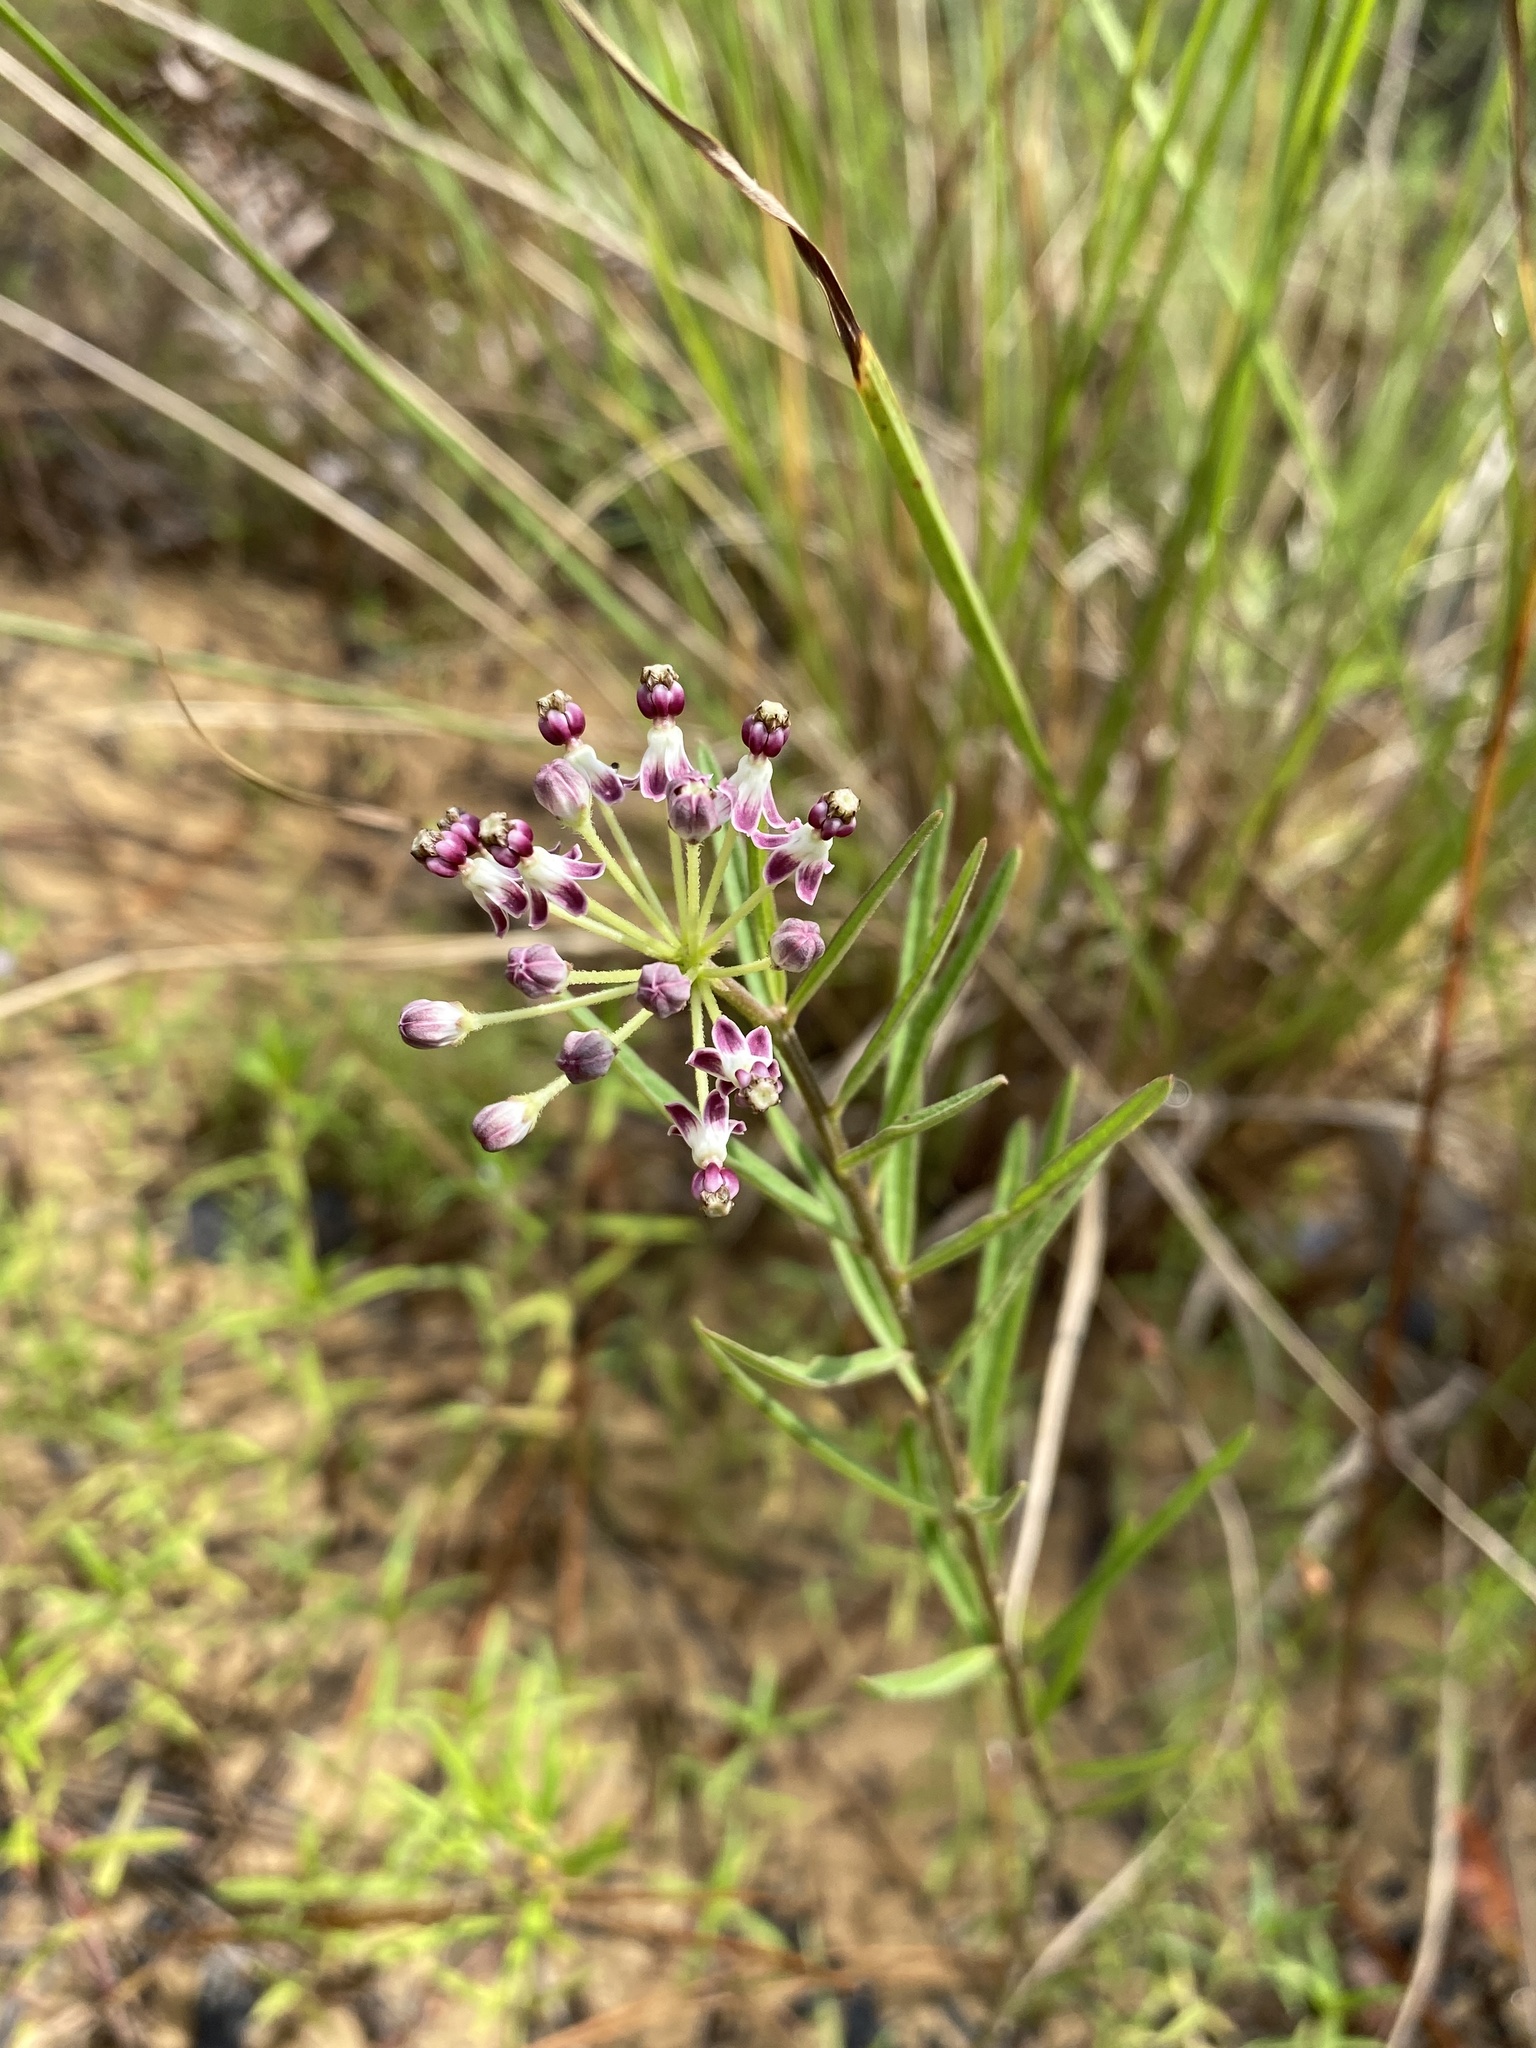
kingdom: Plantae
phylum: Tracheophyta
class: Magnoliopsida
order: Gentianales
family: Apocynaceae
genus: Asclepias
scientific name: Asclepias longifolia
